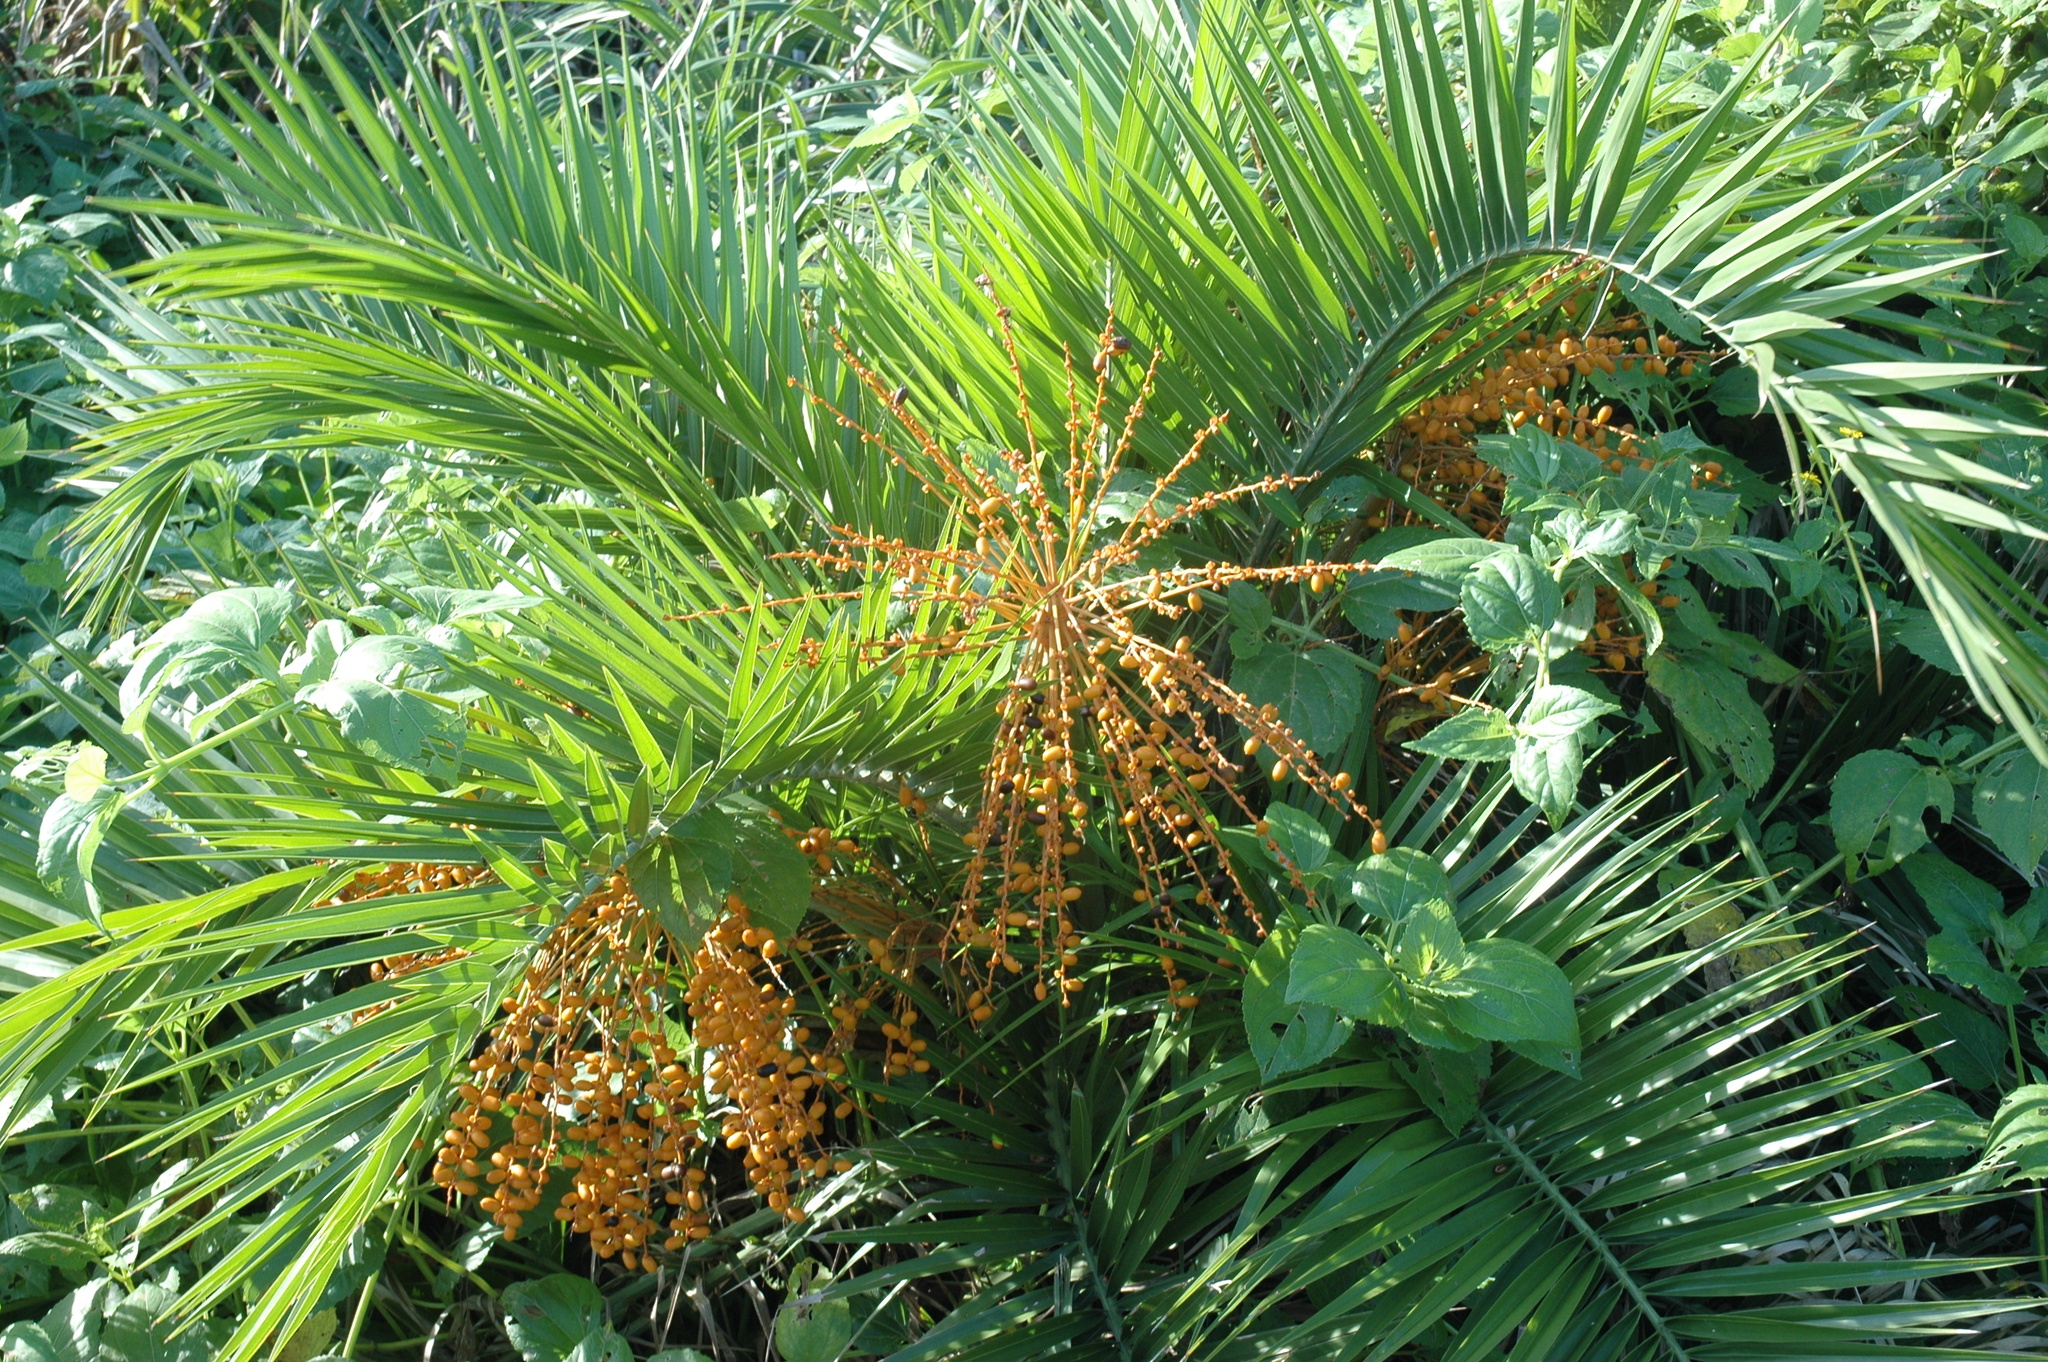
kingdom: Plantae
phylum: Tracheophyta
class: Liliopsida
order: Arecales
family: Arecaceae
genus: Phoenix
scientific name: Phoenix loureiroi
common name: Loureiro's palm
